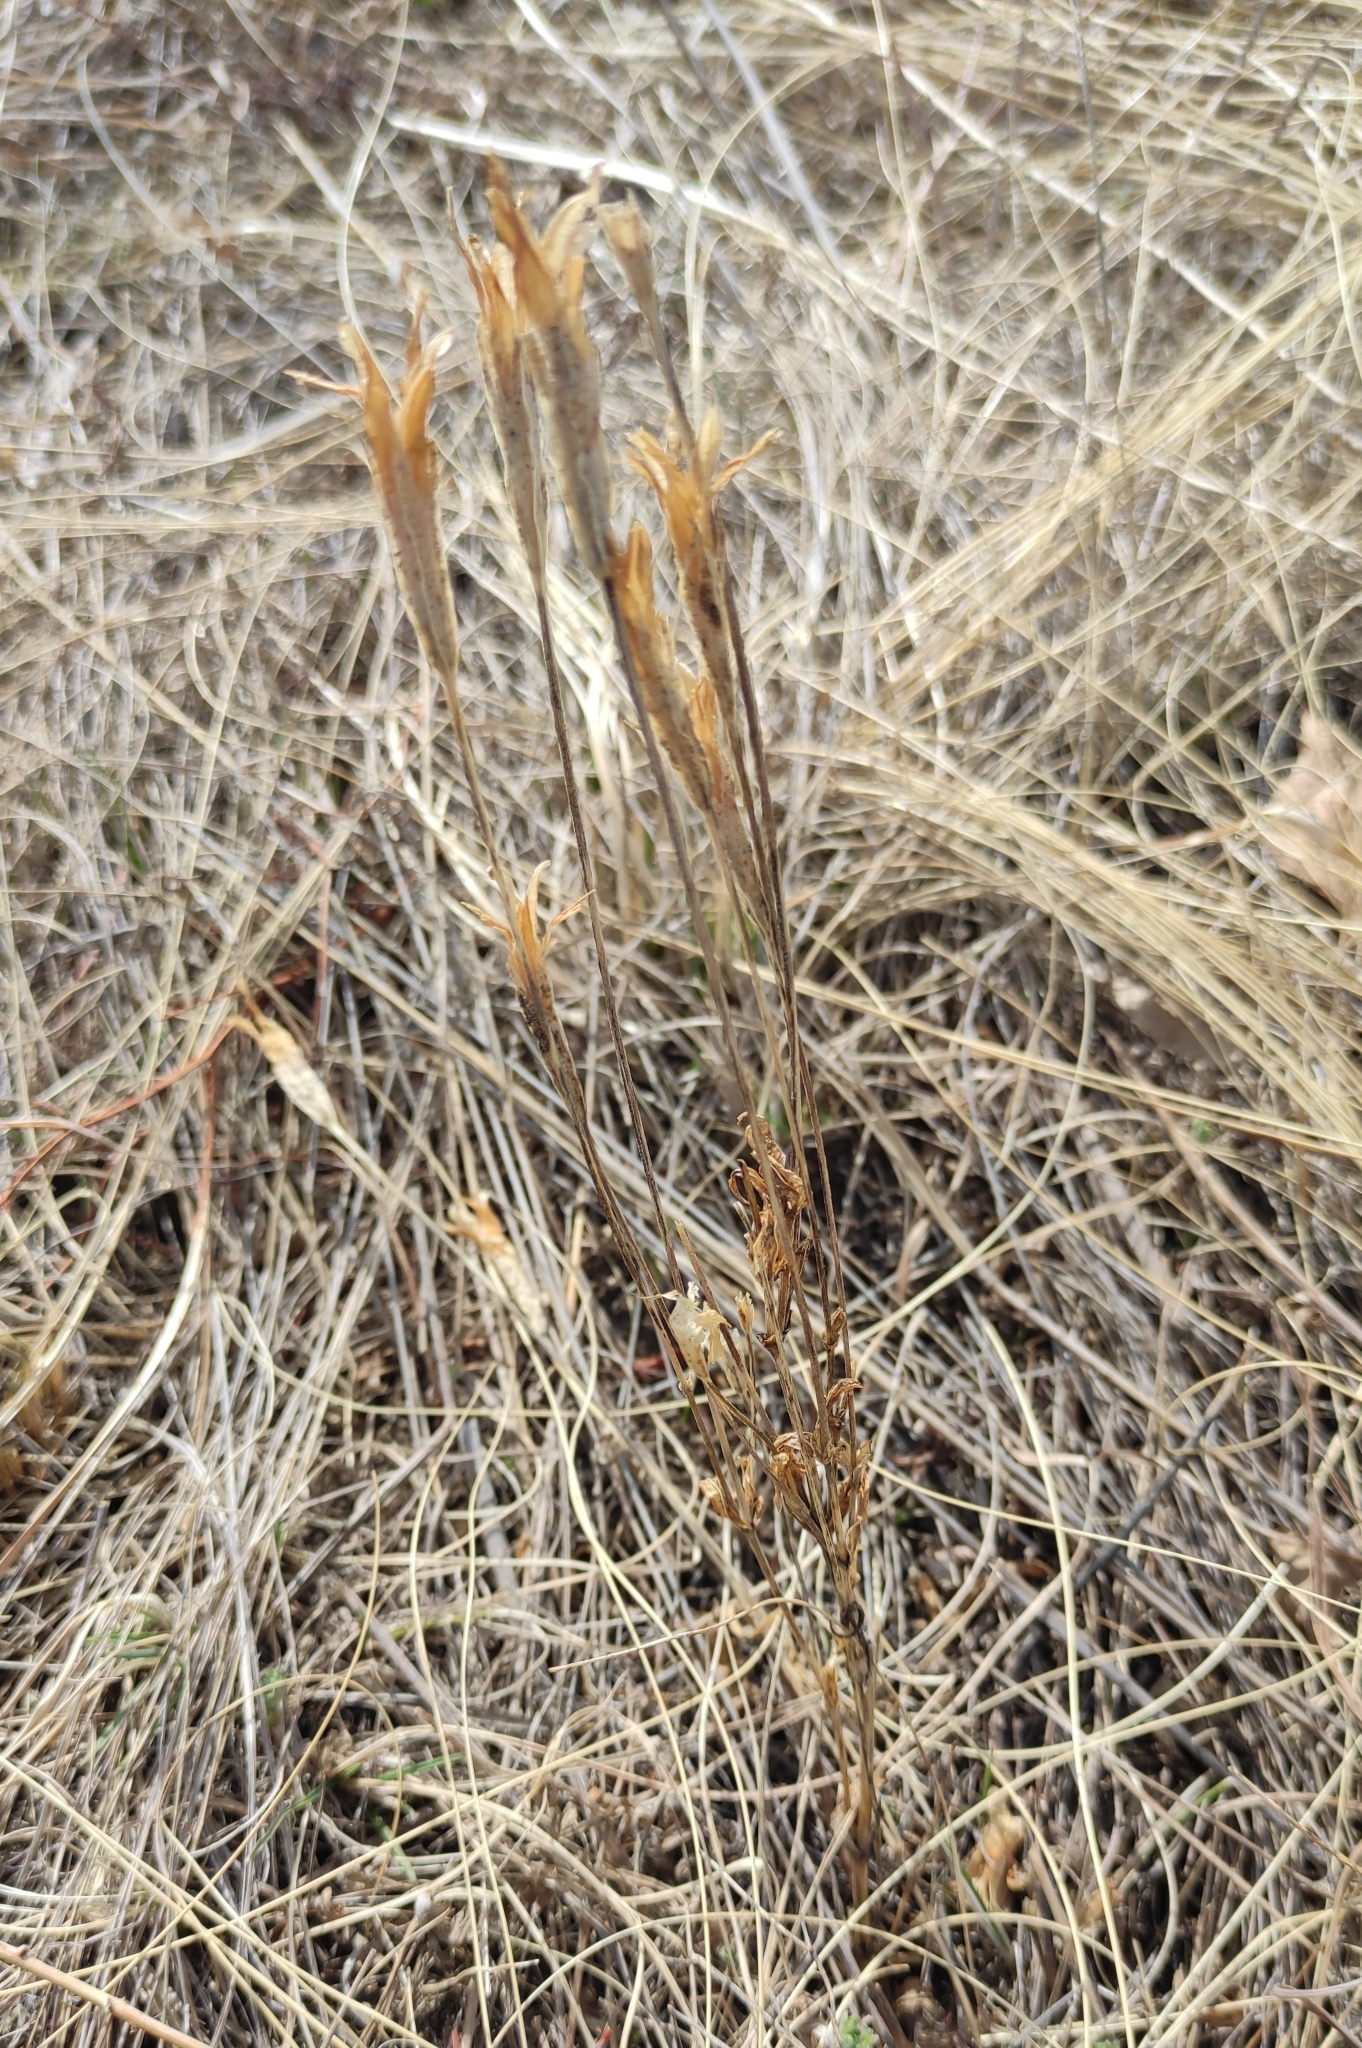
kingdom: Plantae
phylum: Tracheophyta
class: Magnoliopsida
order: Gentianales
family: Gentianaceae
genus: Gentianopsis
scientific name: Gentianopsis barbata
